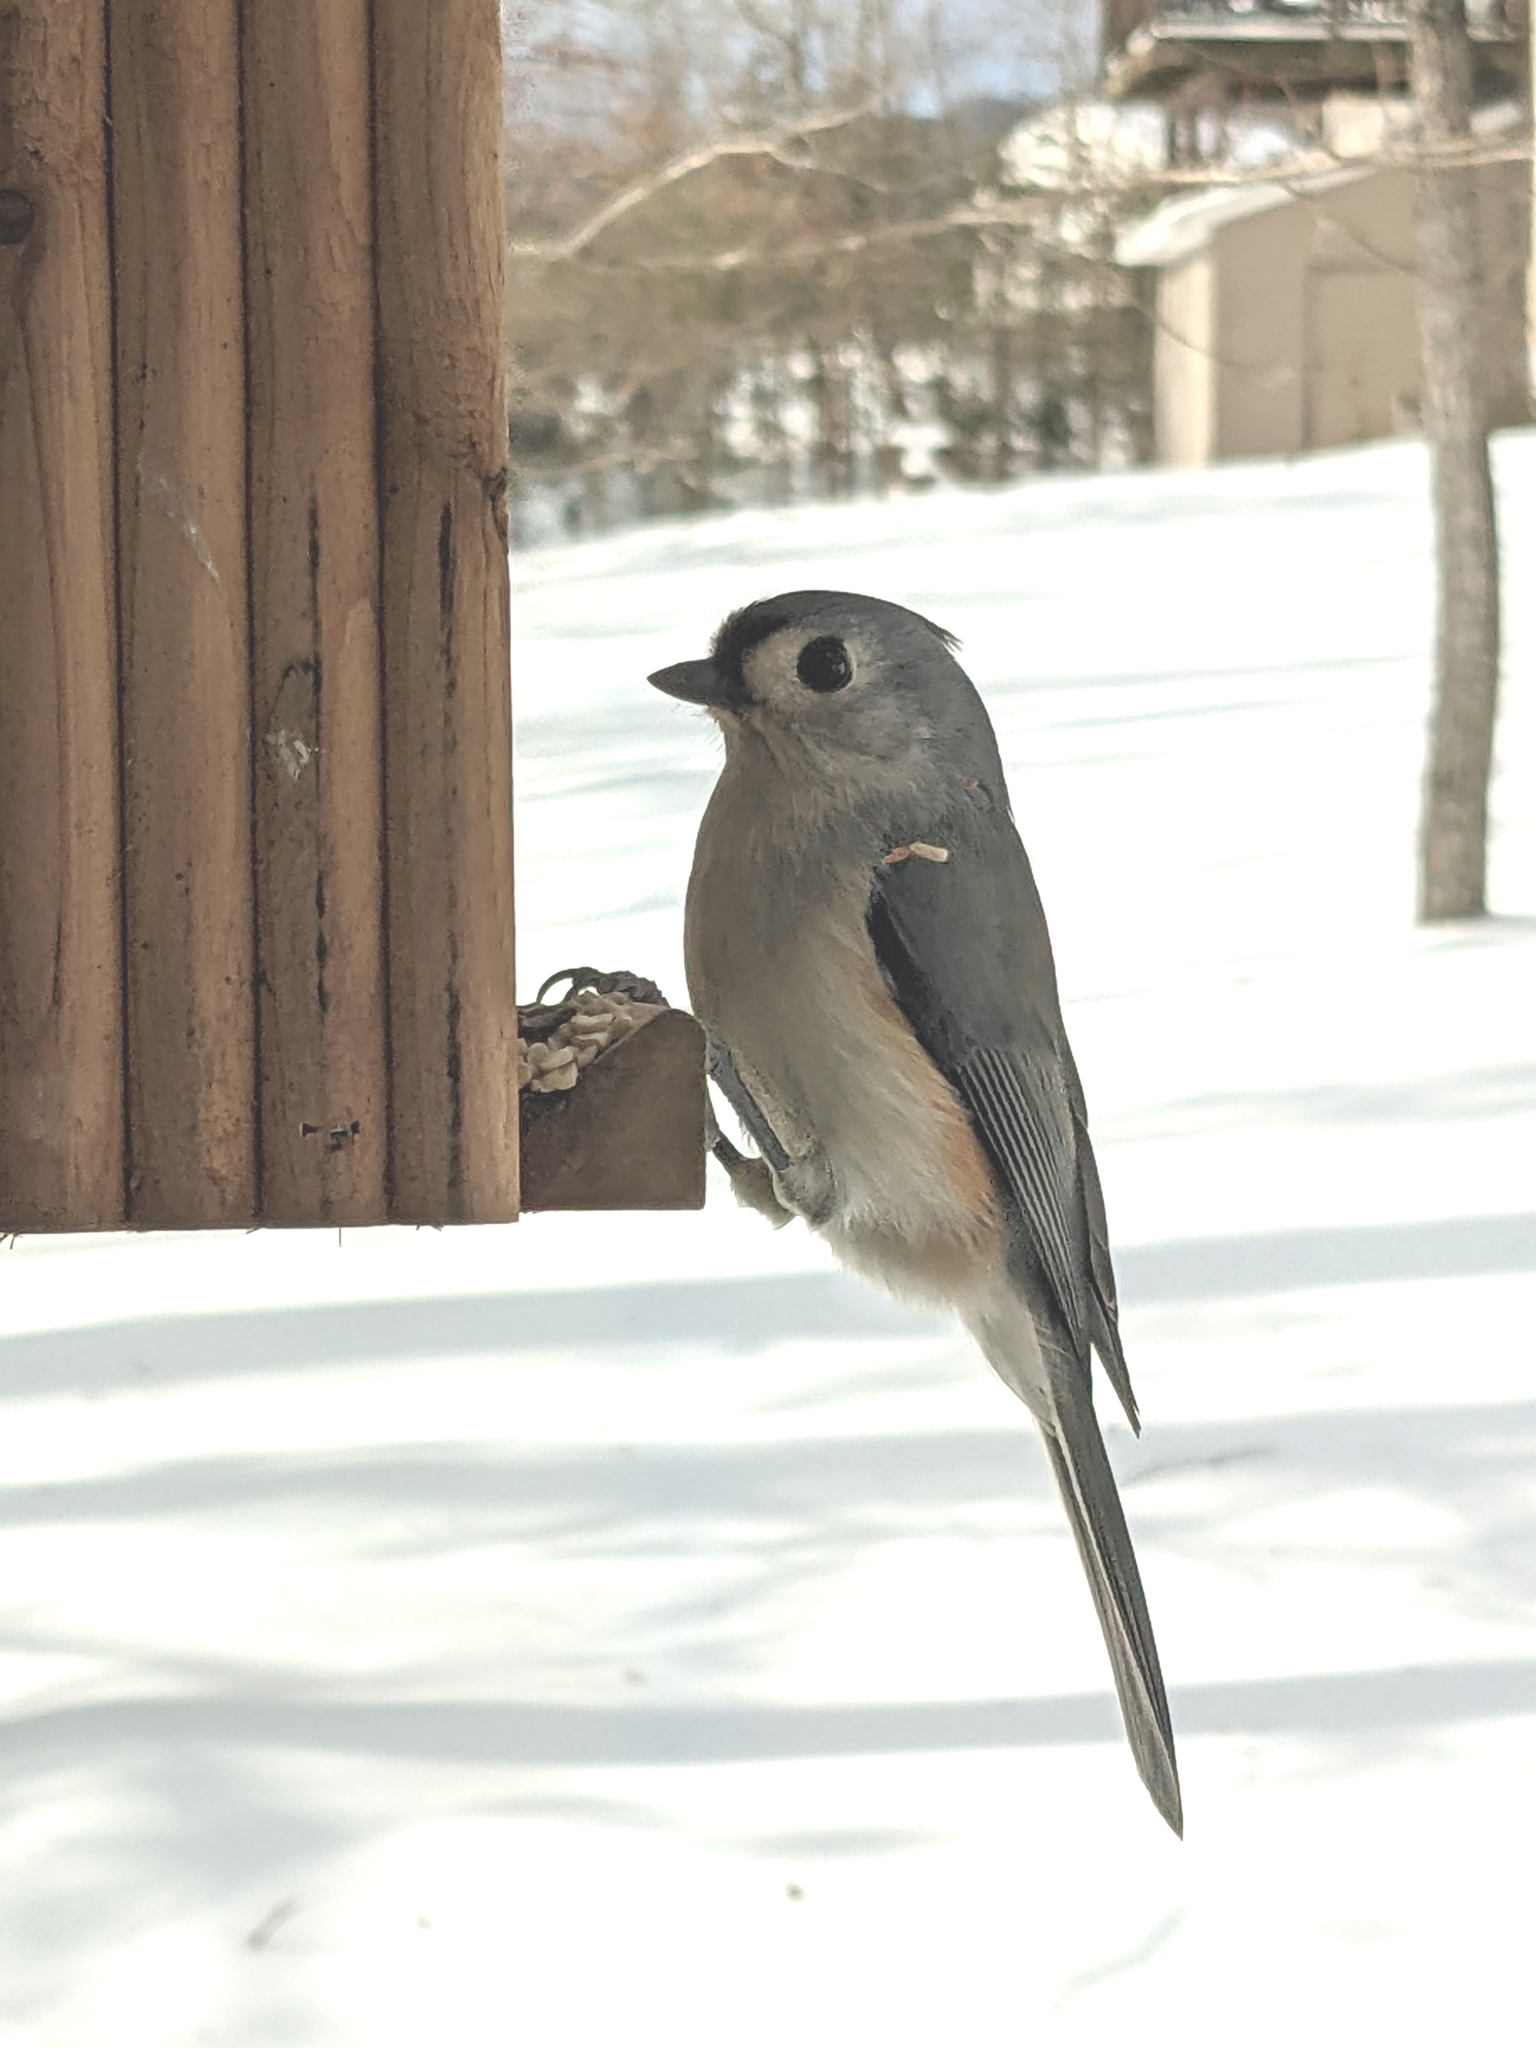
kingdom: Animalia
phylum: Chordata
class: Aves
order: Passeriformes
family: Paridae
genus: Baeolophus
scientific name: Baeolophus bicolor
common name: Tufted titmouse
